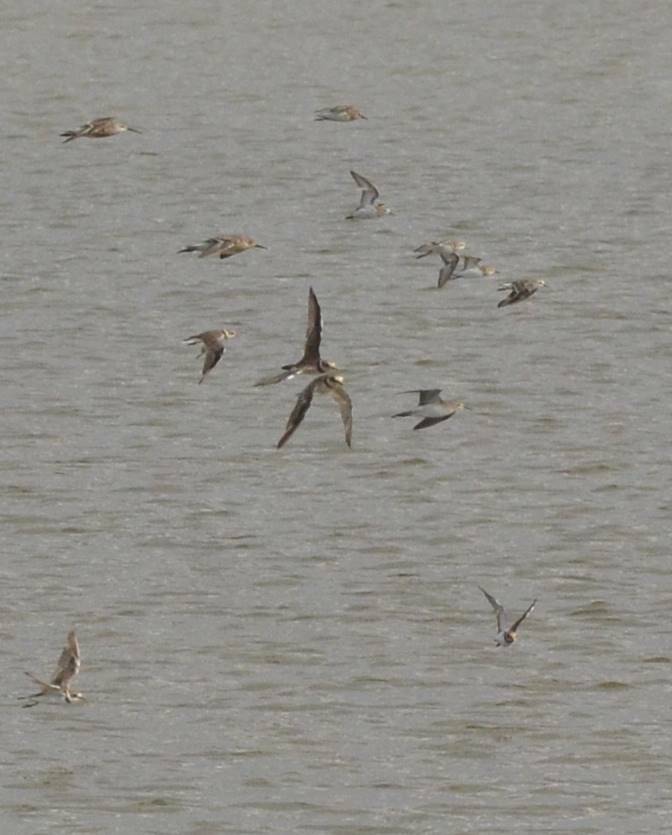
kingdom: Animalia
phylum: Chordata
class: Aves
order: Charadriiformes
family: Charadriidae
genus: Charadrius
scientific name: Charadrius hiaticula
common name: Common ringed plover
